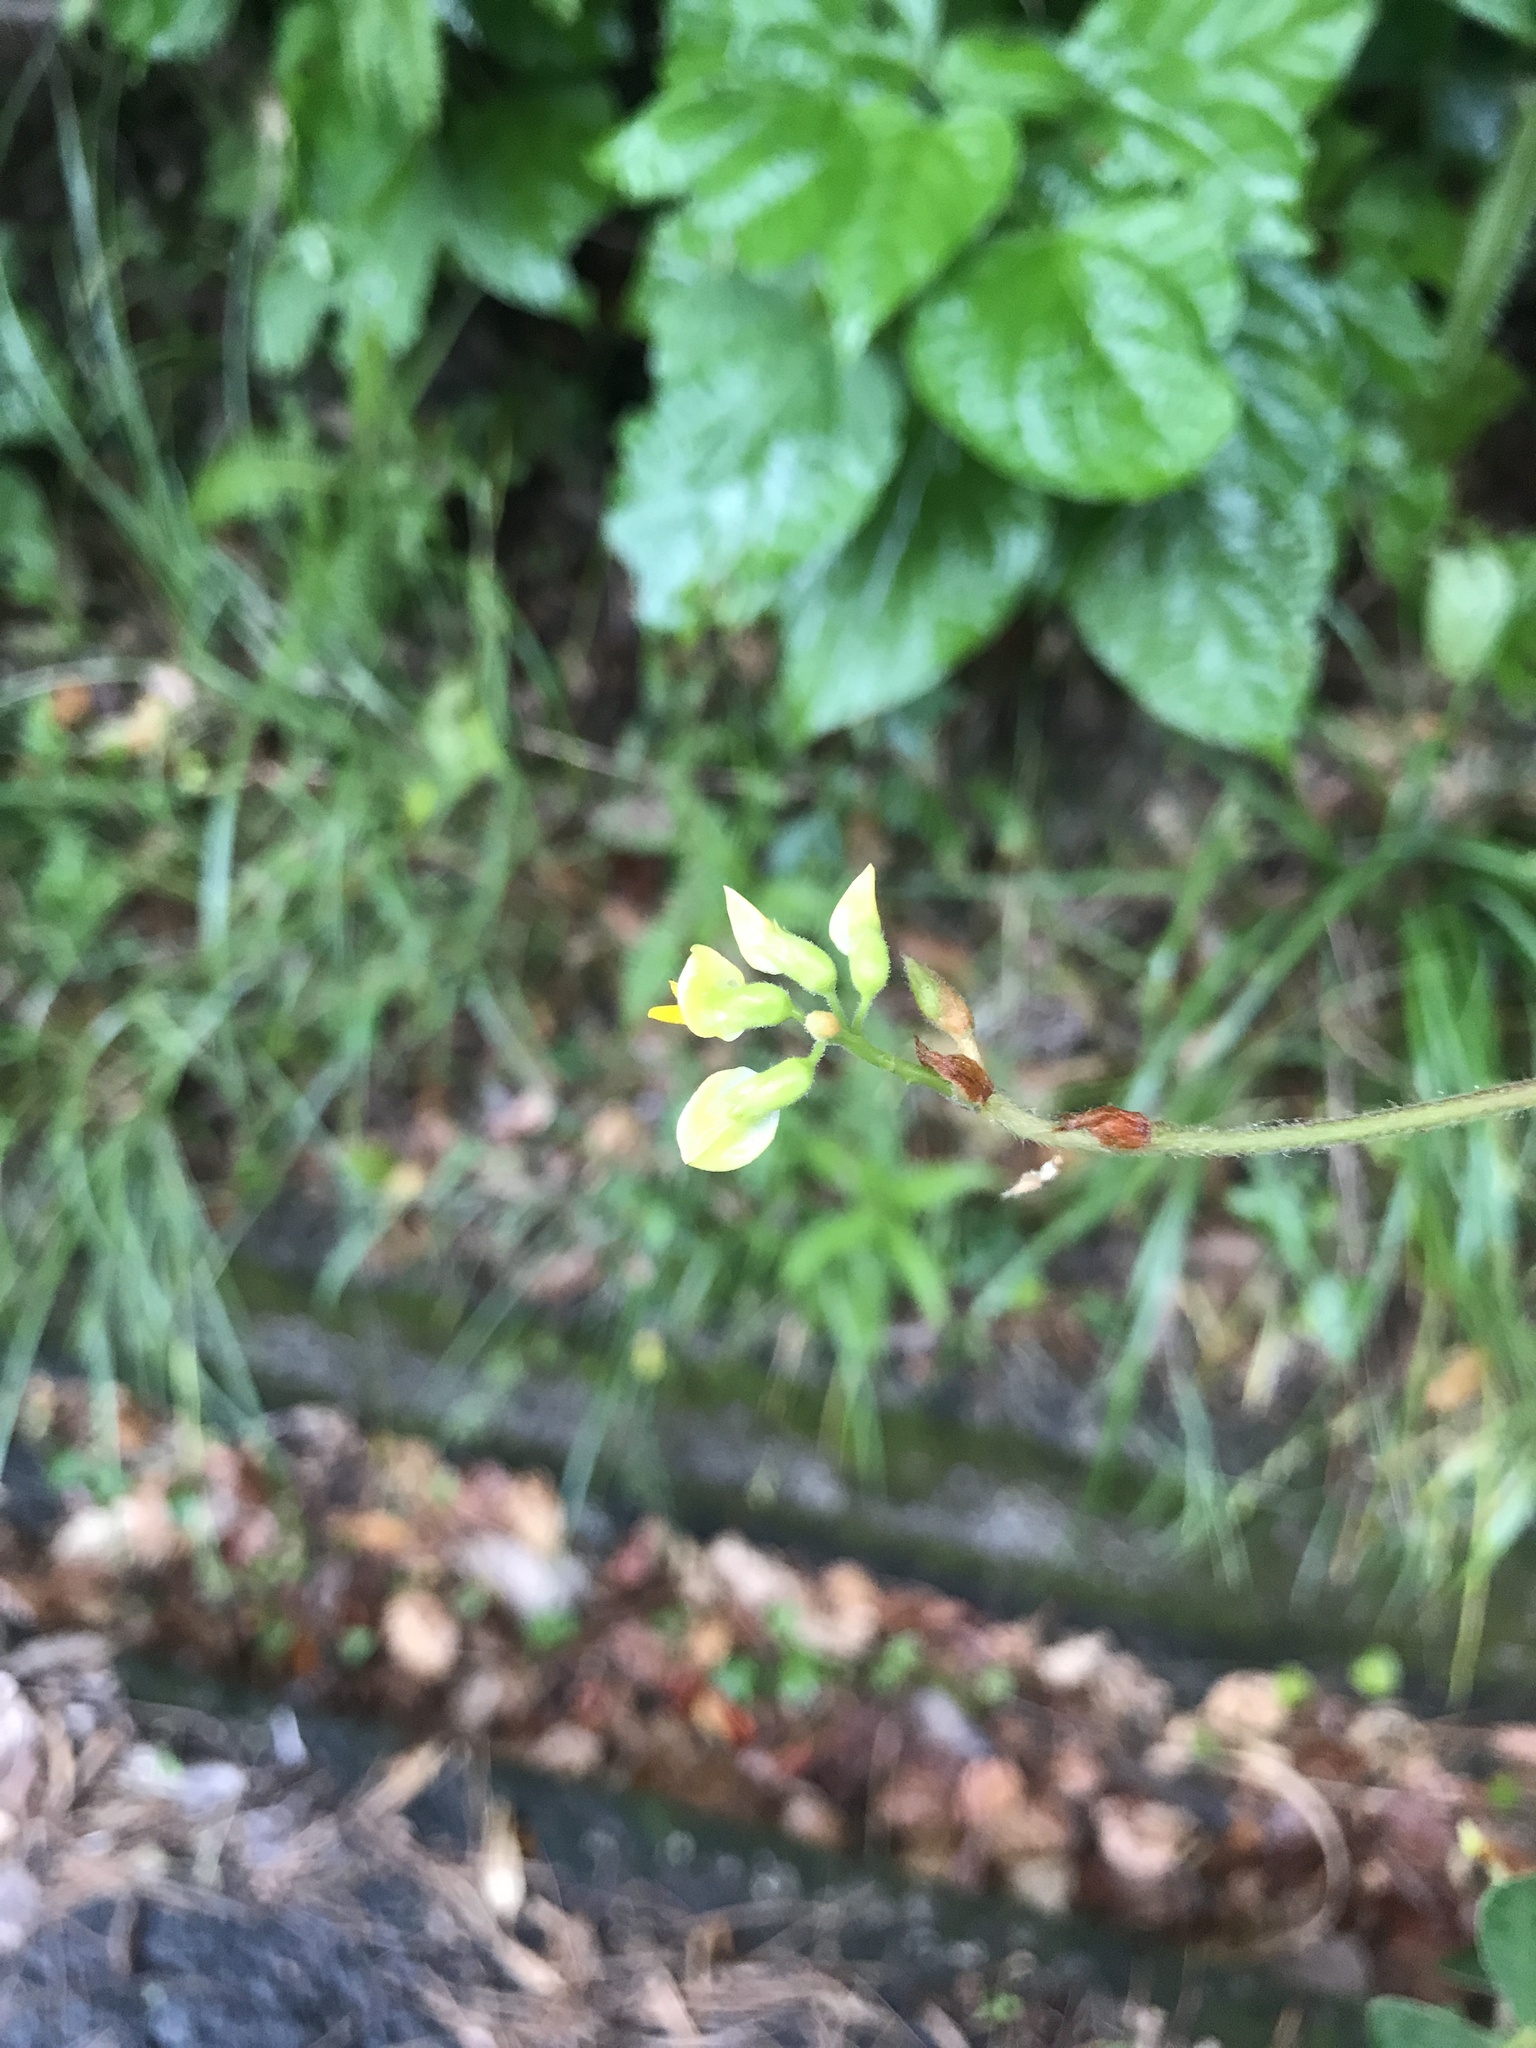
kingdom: Plantae
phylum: Tracheophyta
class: Magnoliopsida
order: Fabales
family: Fabaceae
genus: Rhynchosia
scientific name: Rhynchosia volubilis
